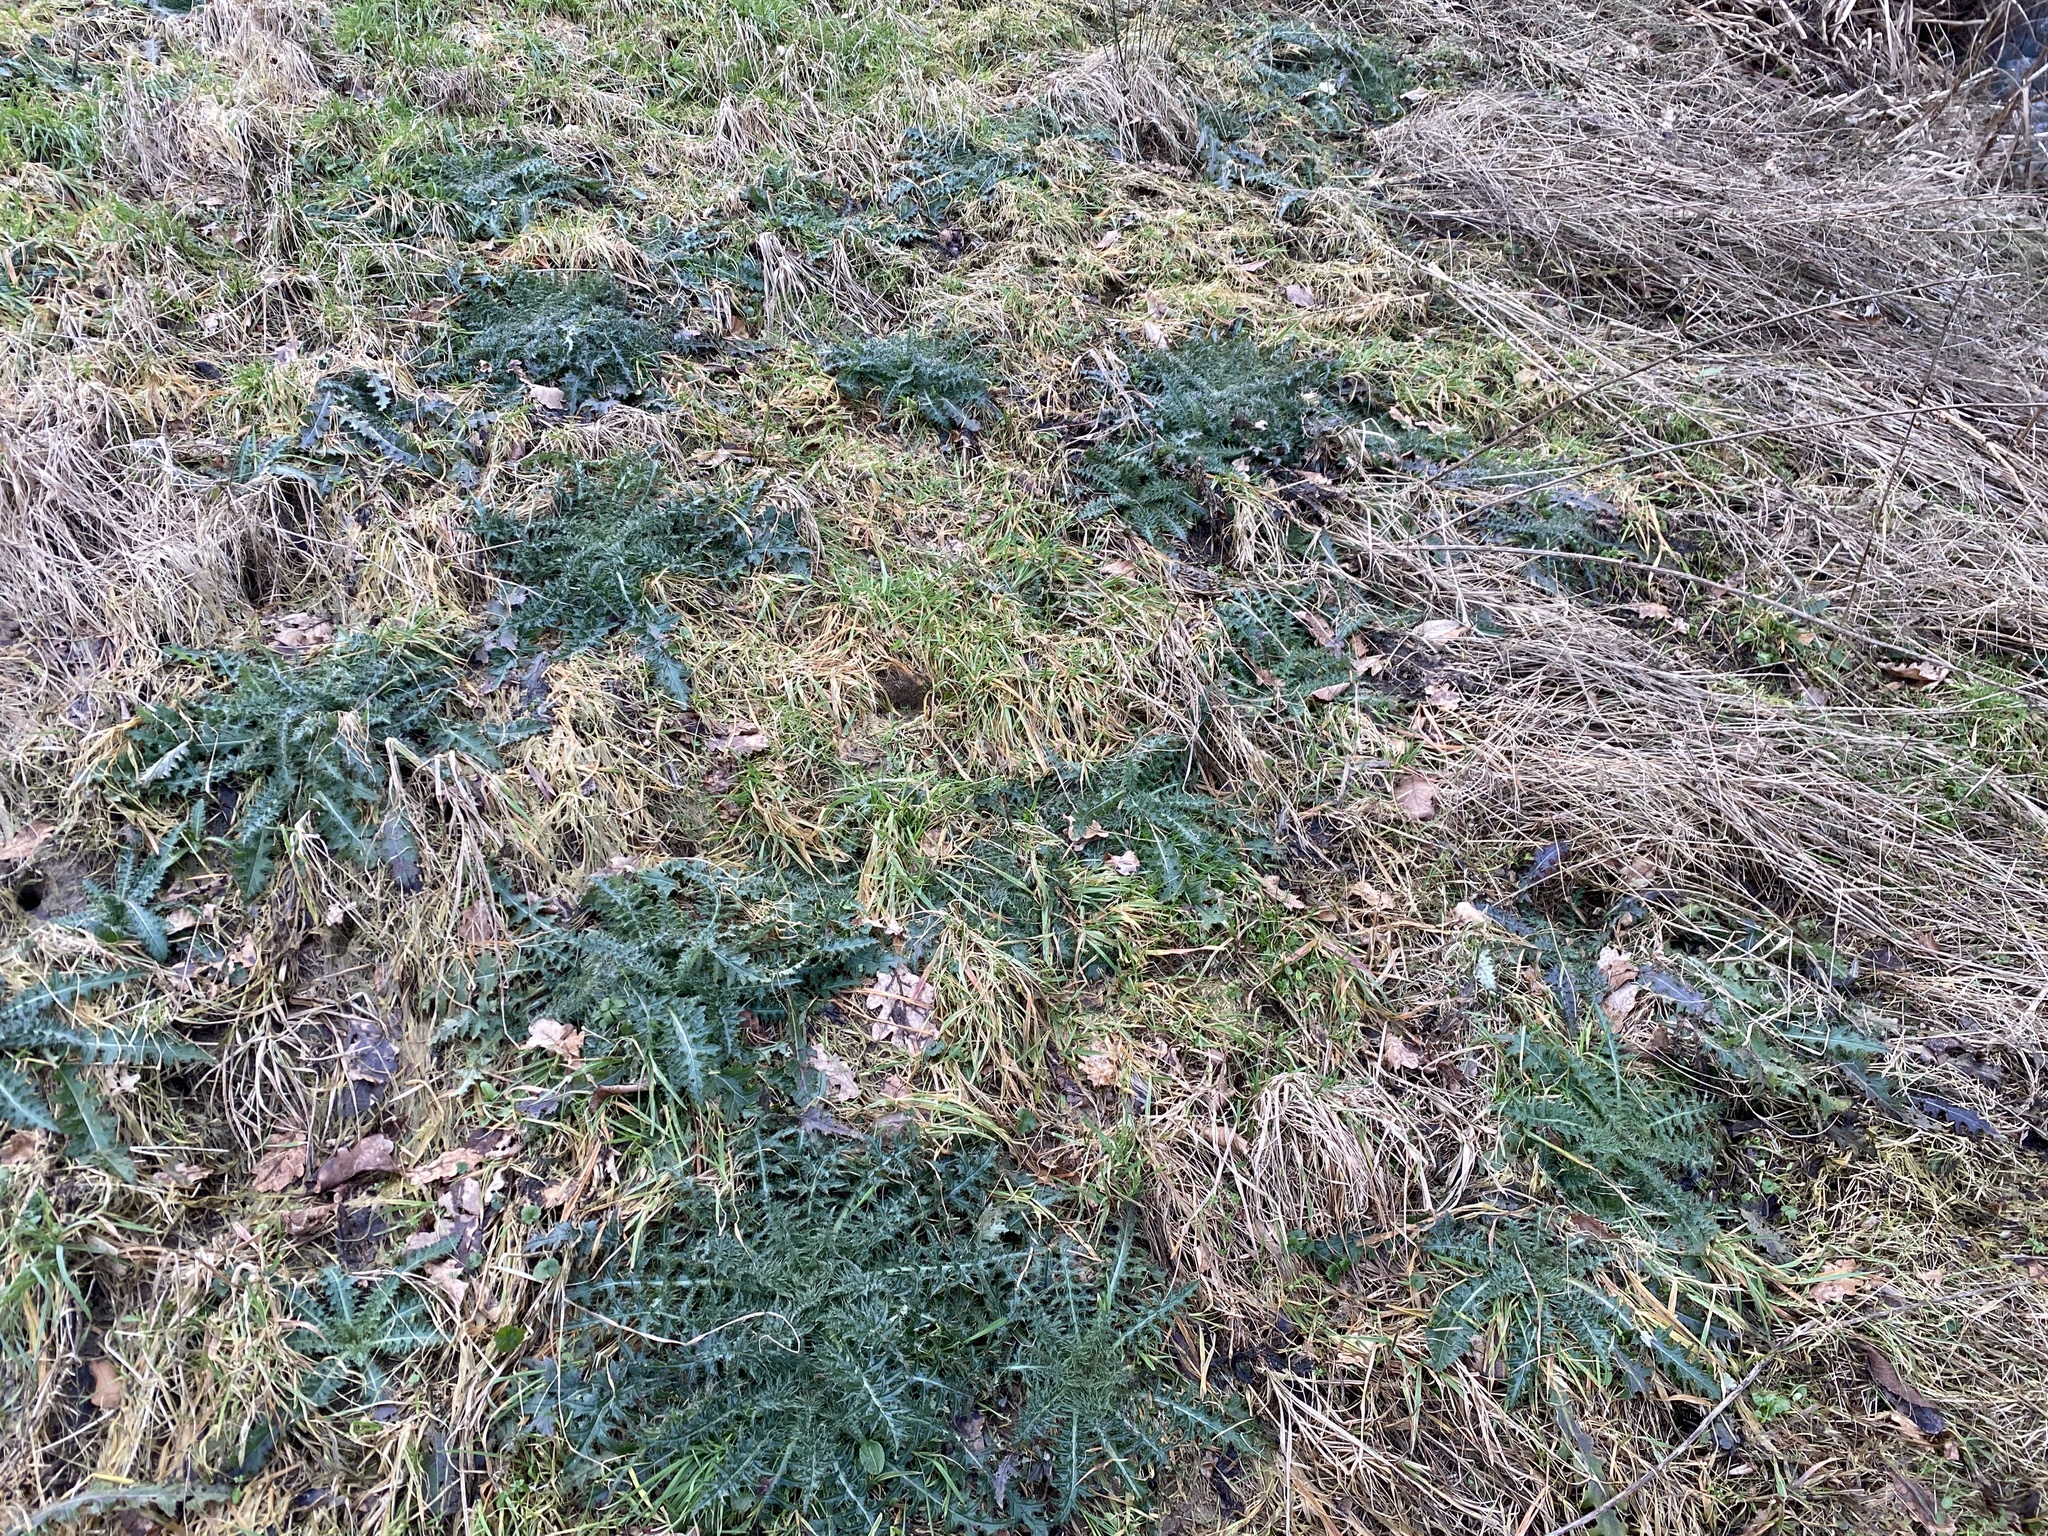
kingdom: Plantae
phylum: Tracheophyta
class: Magnoliopsida
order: Asterales
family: Asteraceae
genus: Cirsium
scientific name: Cirsium palustre
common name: Marsh thistle
